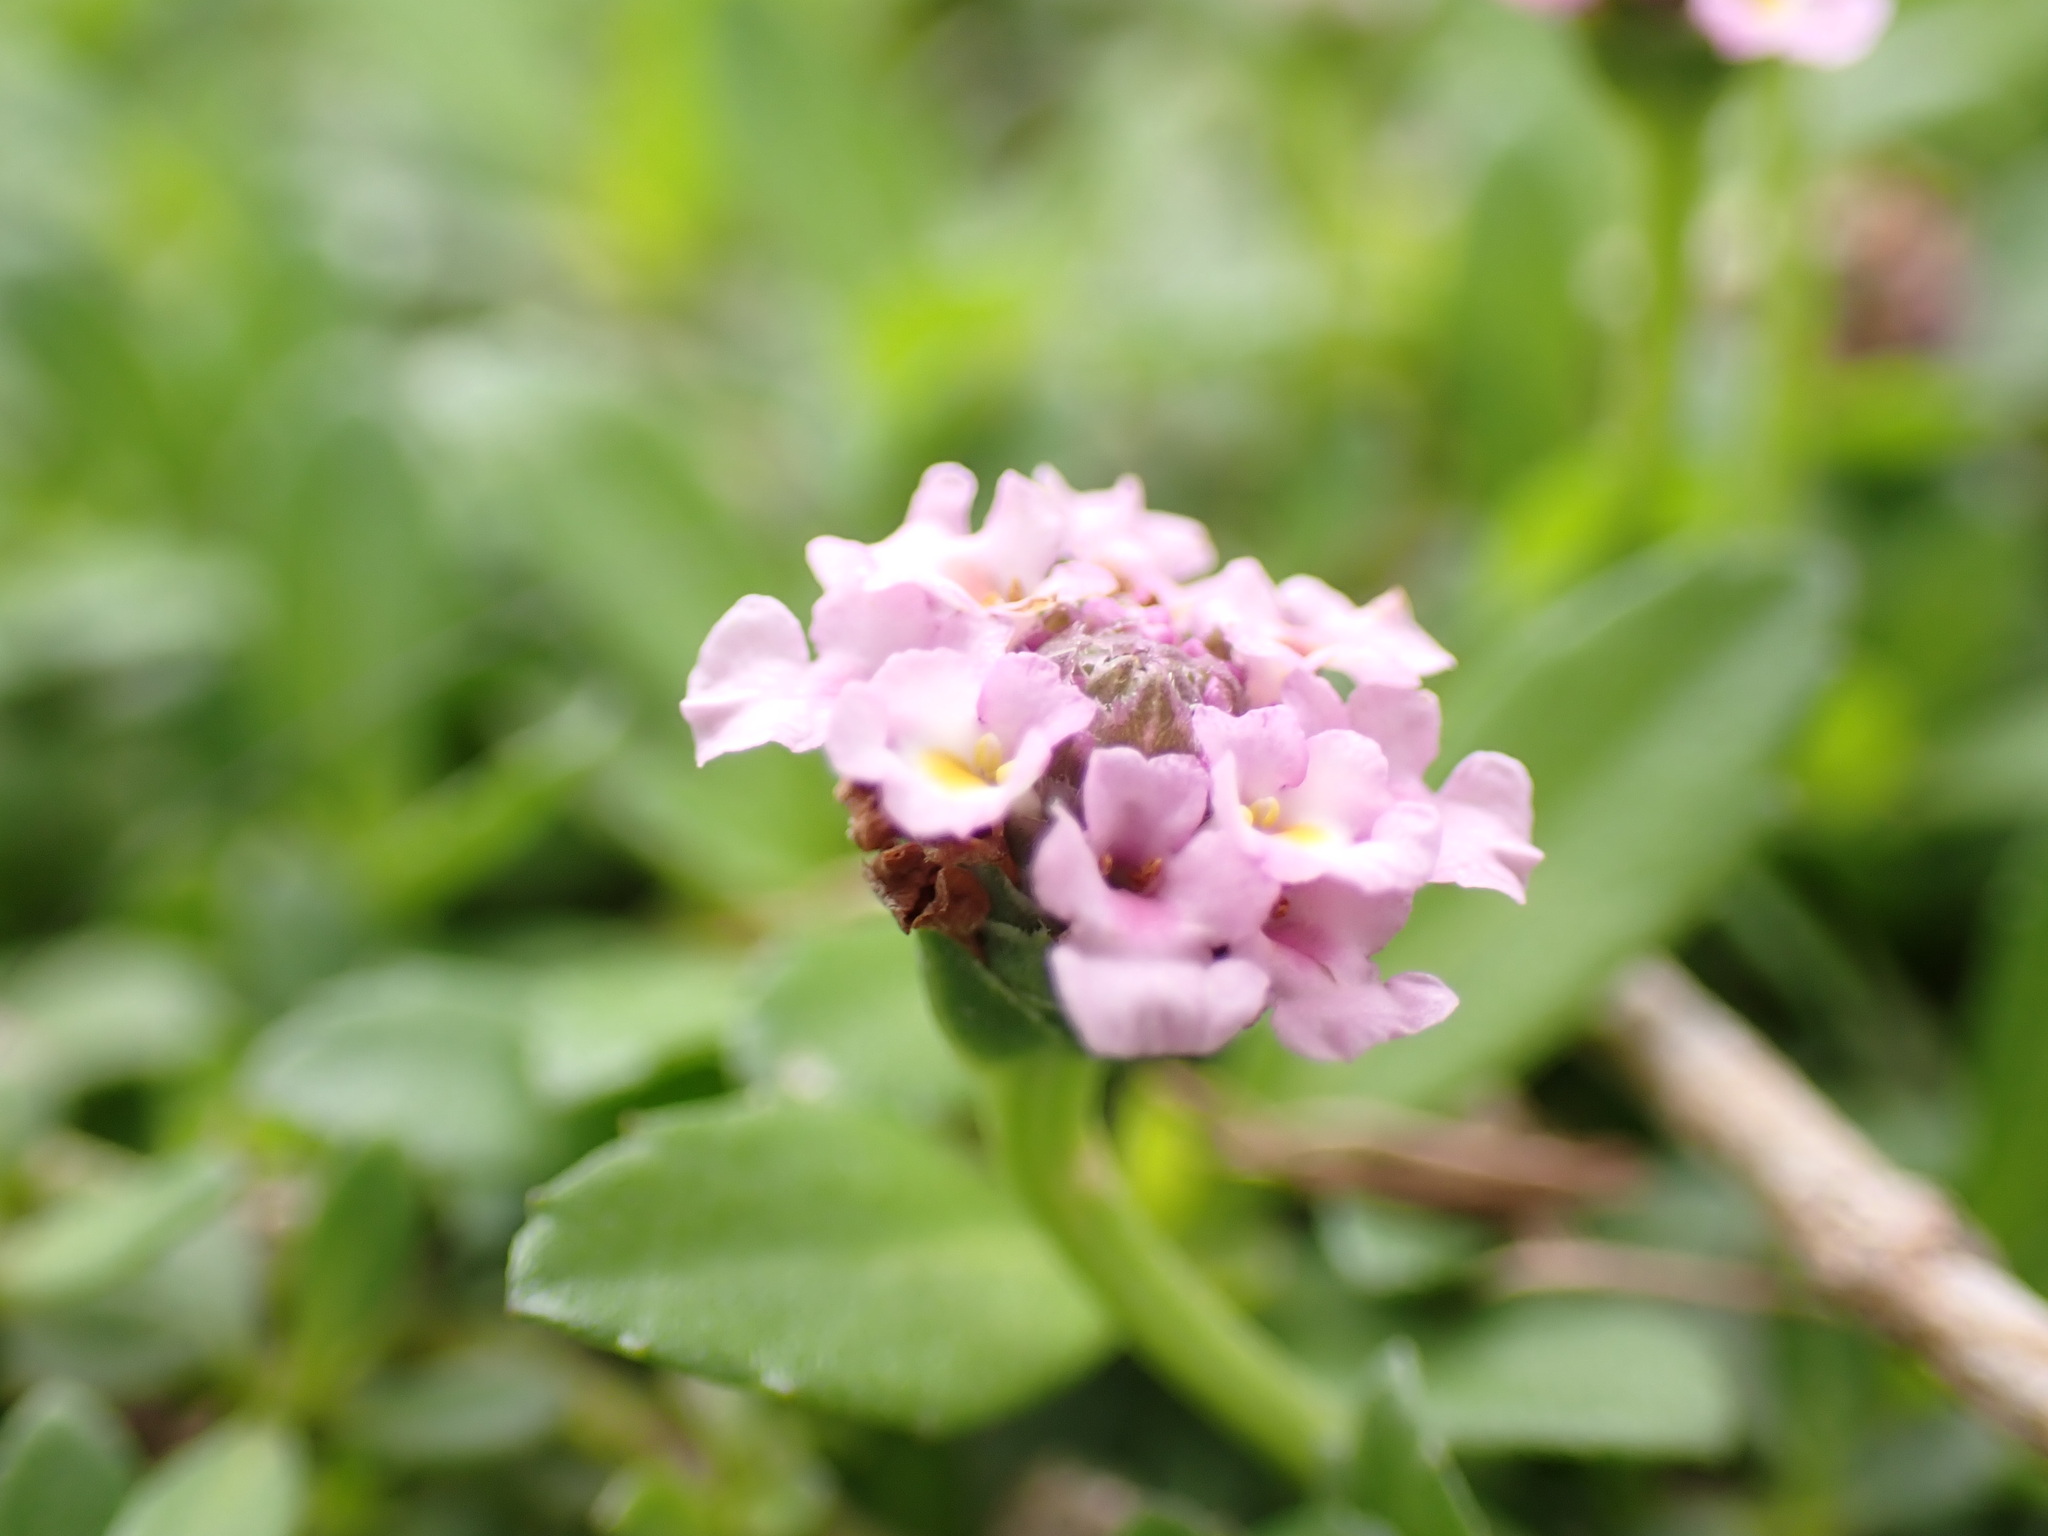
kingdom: Plantae
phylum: Tracheophyta
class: Magnoliopsida
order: Lamiales
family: Verbenaceae
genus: Phyla
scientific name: Phyla nodiflora
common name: Frogfruit
